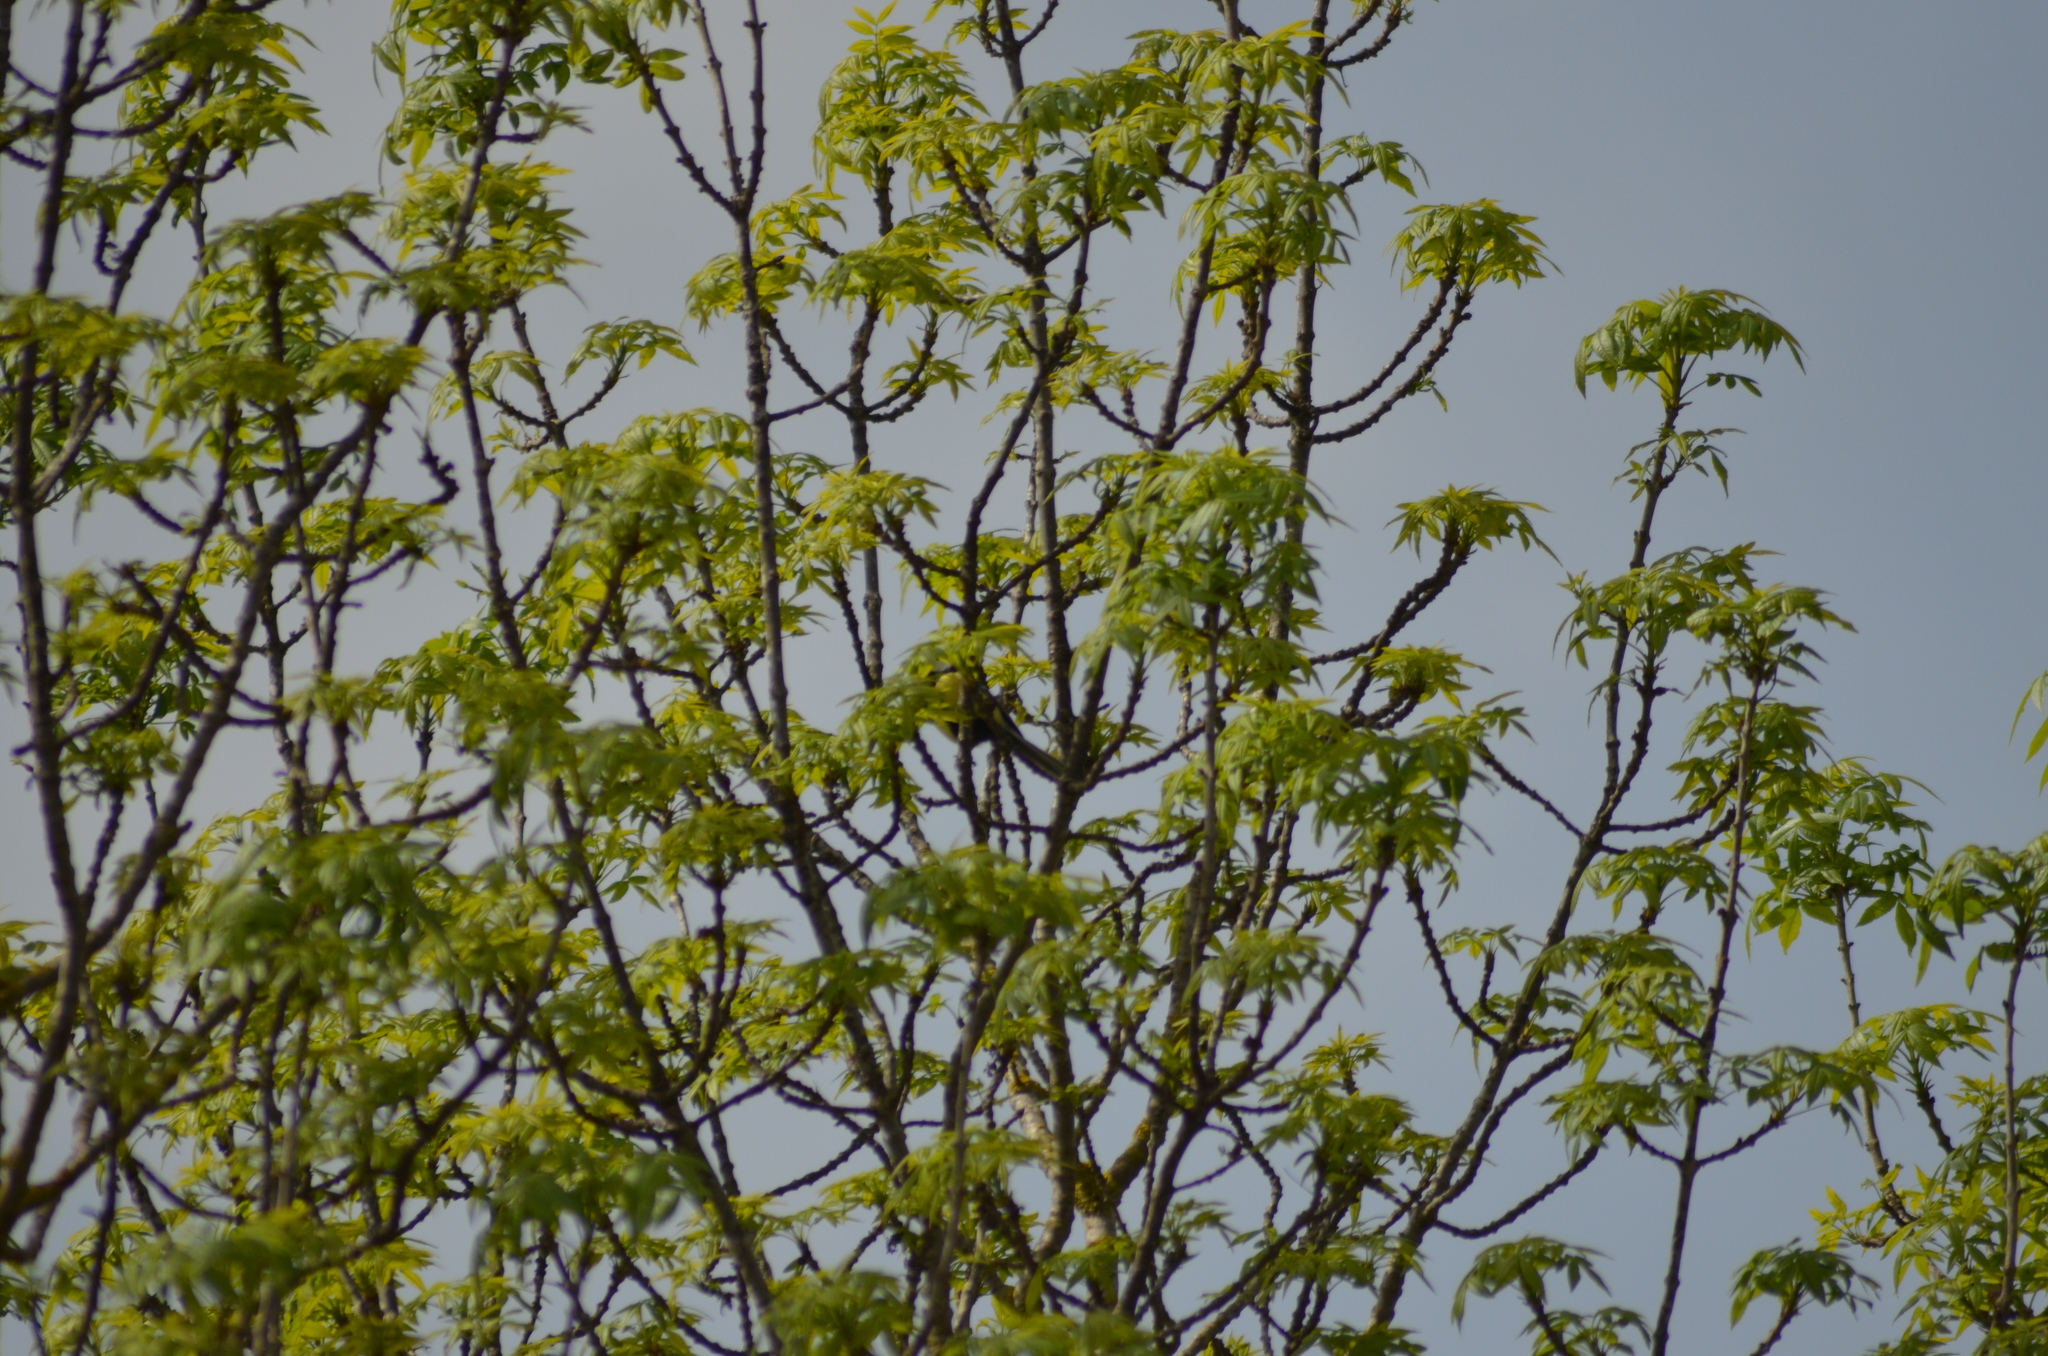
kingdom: Animalia
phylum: Chordata
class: Aves
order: Passeriformes
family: Paridae
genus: Parus
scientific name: Parus major
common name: Great tit
